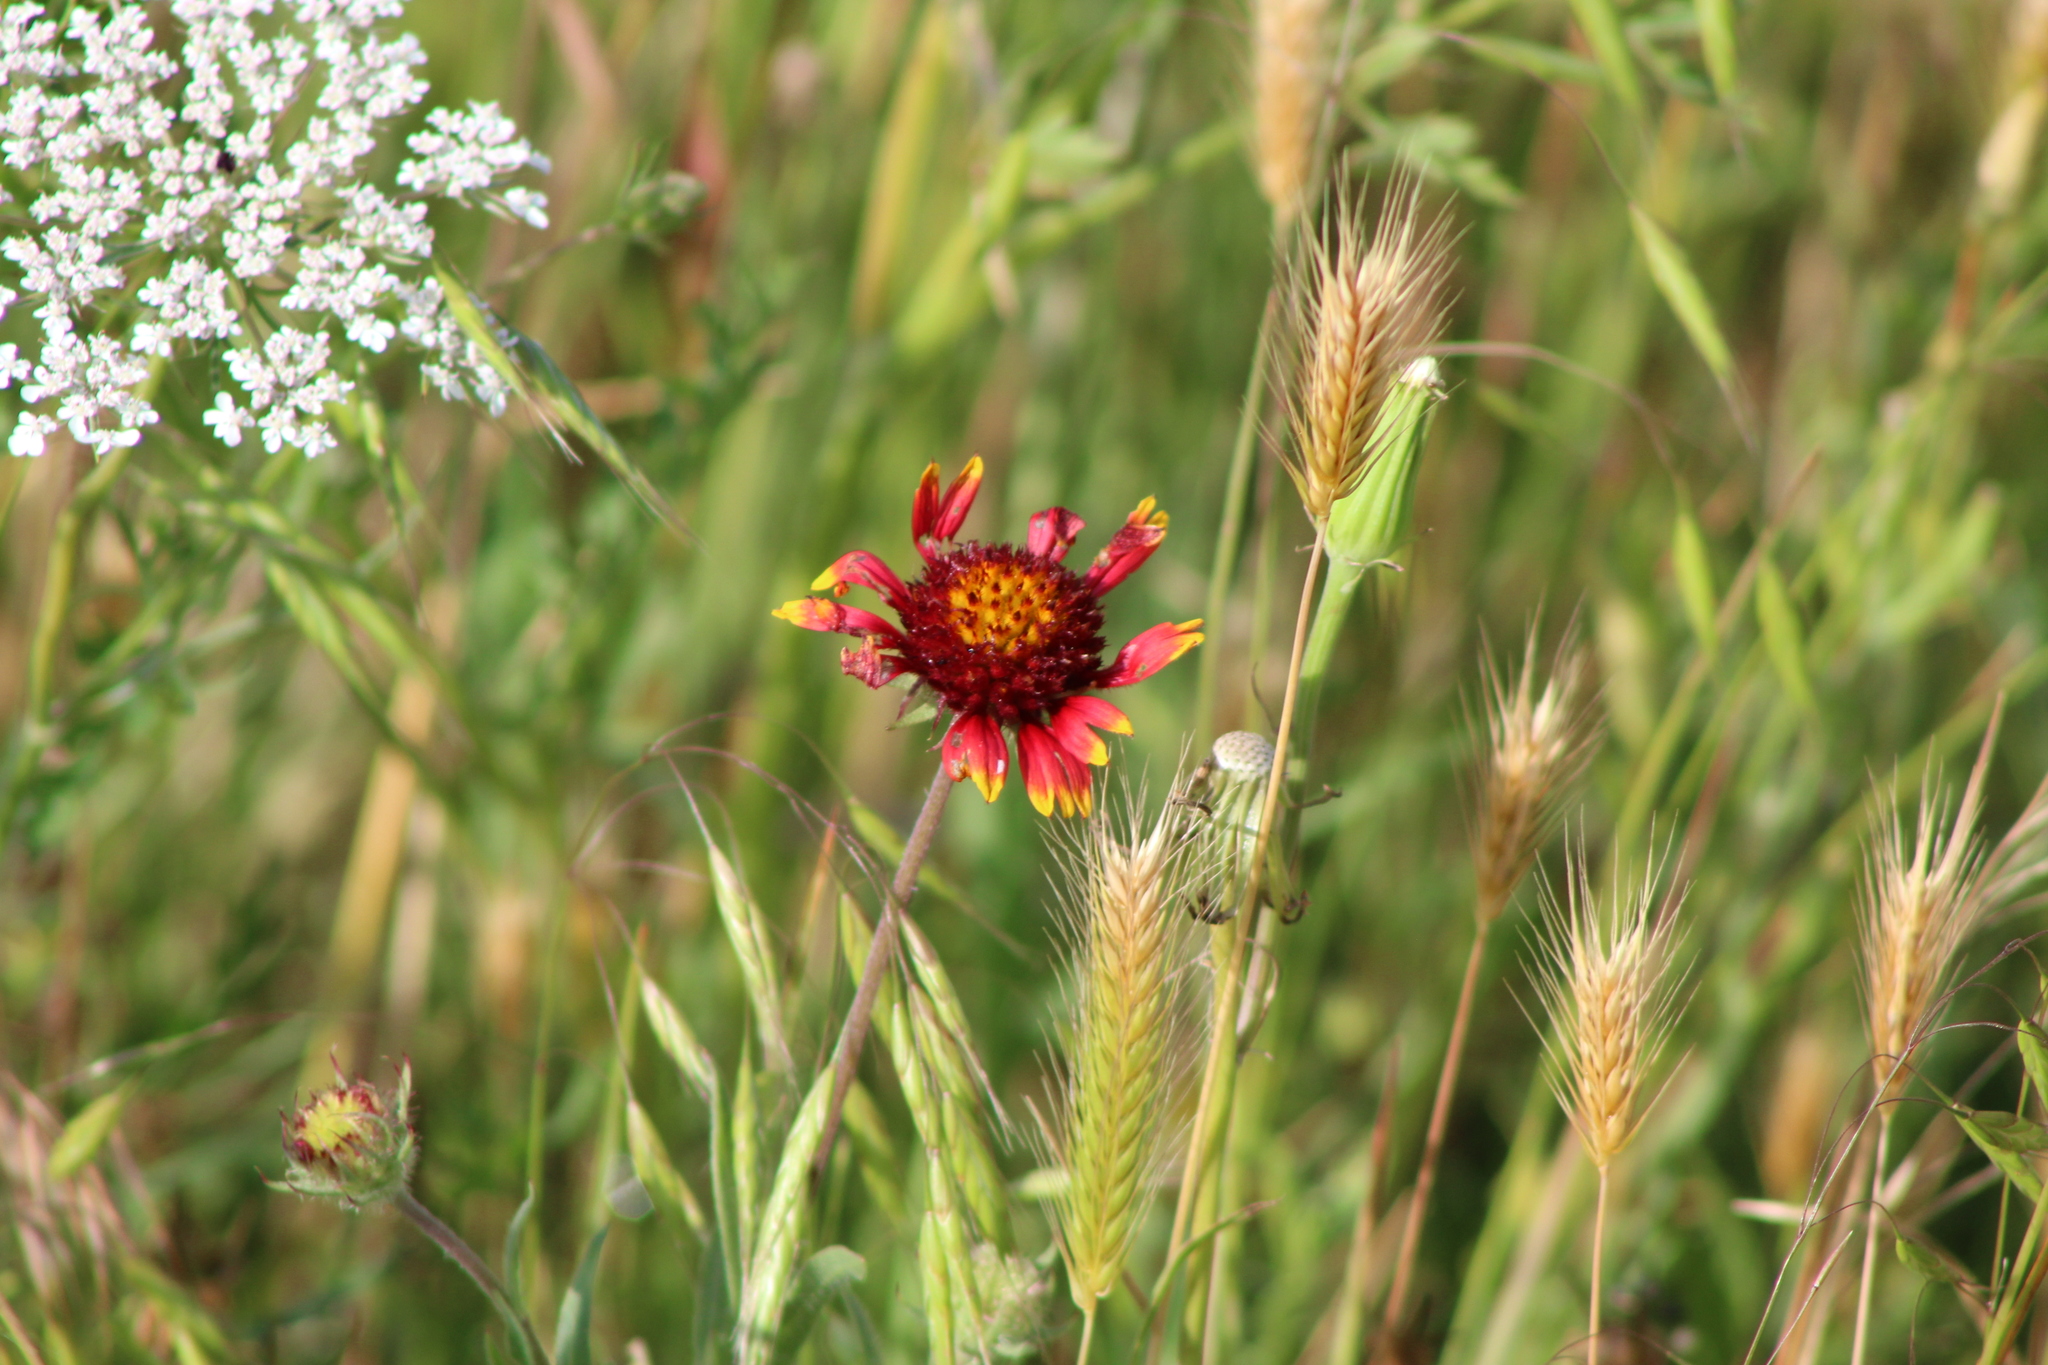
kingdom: Plantae
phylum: Tracheophyta
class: Magnoliopsida
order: Asterales
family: Asteraceae
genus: Gaillardia
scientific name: Gaillardia pulchella
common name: Firewheel
